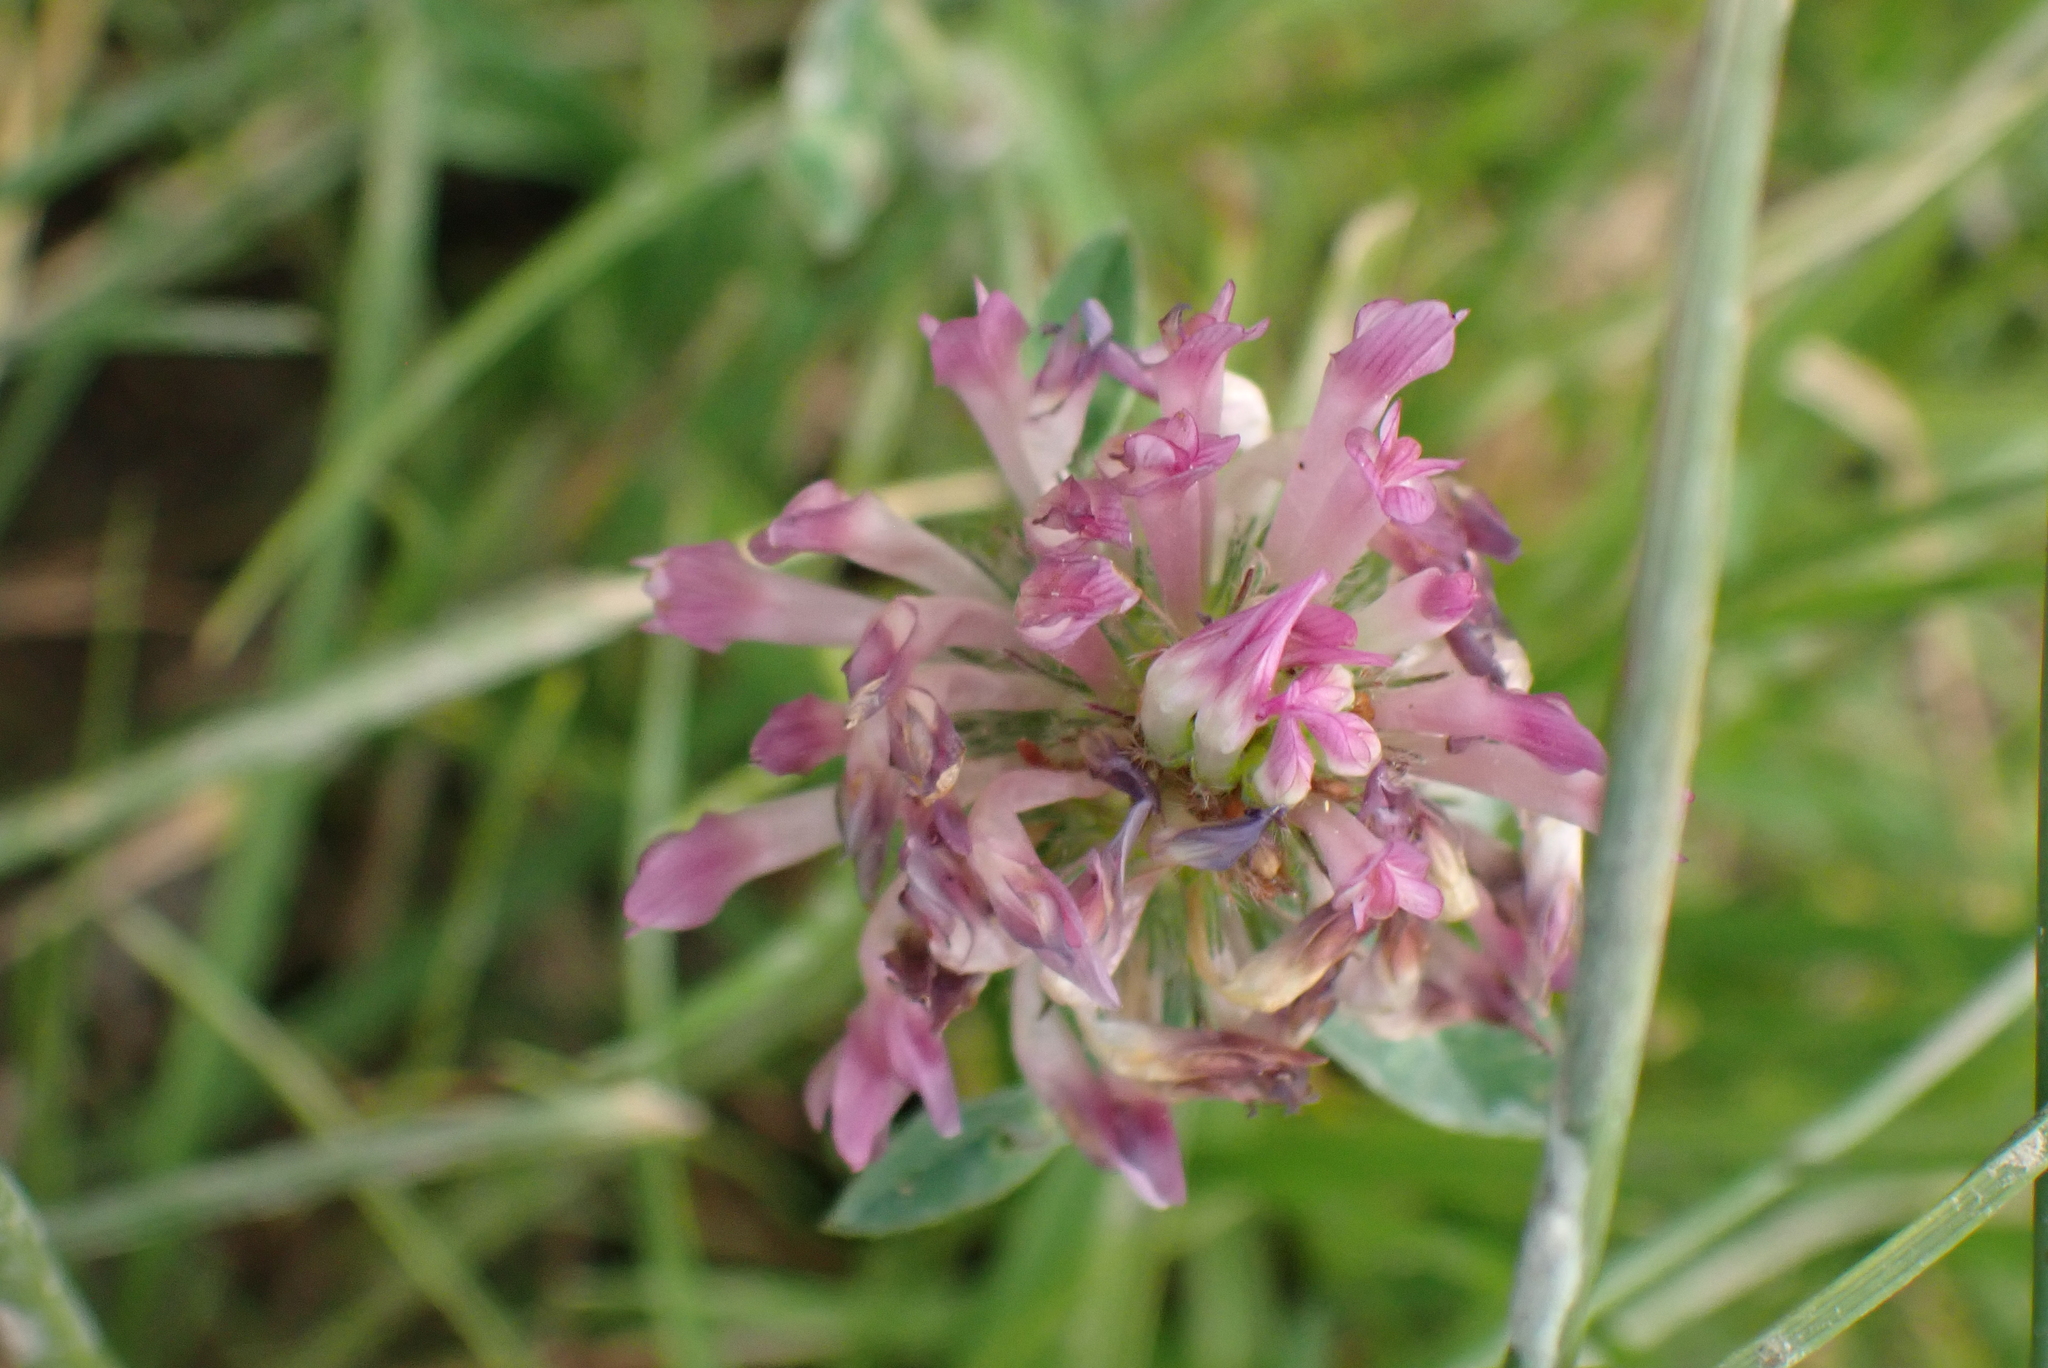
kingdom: Plantae
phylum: Tracheophyta
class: Magnoliopsida
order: Fabales
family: Fabaceae
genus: Trifolium
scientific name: Trifolium pratense
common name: Red clover
